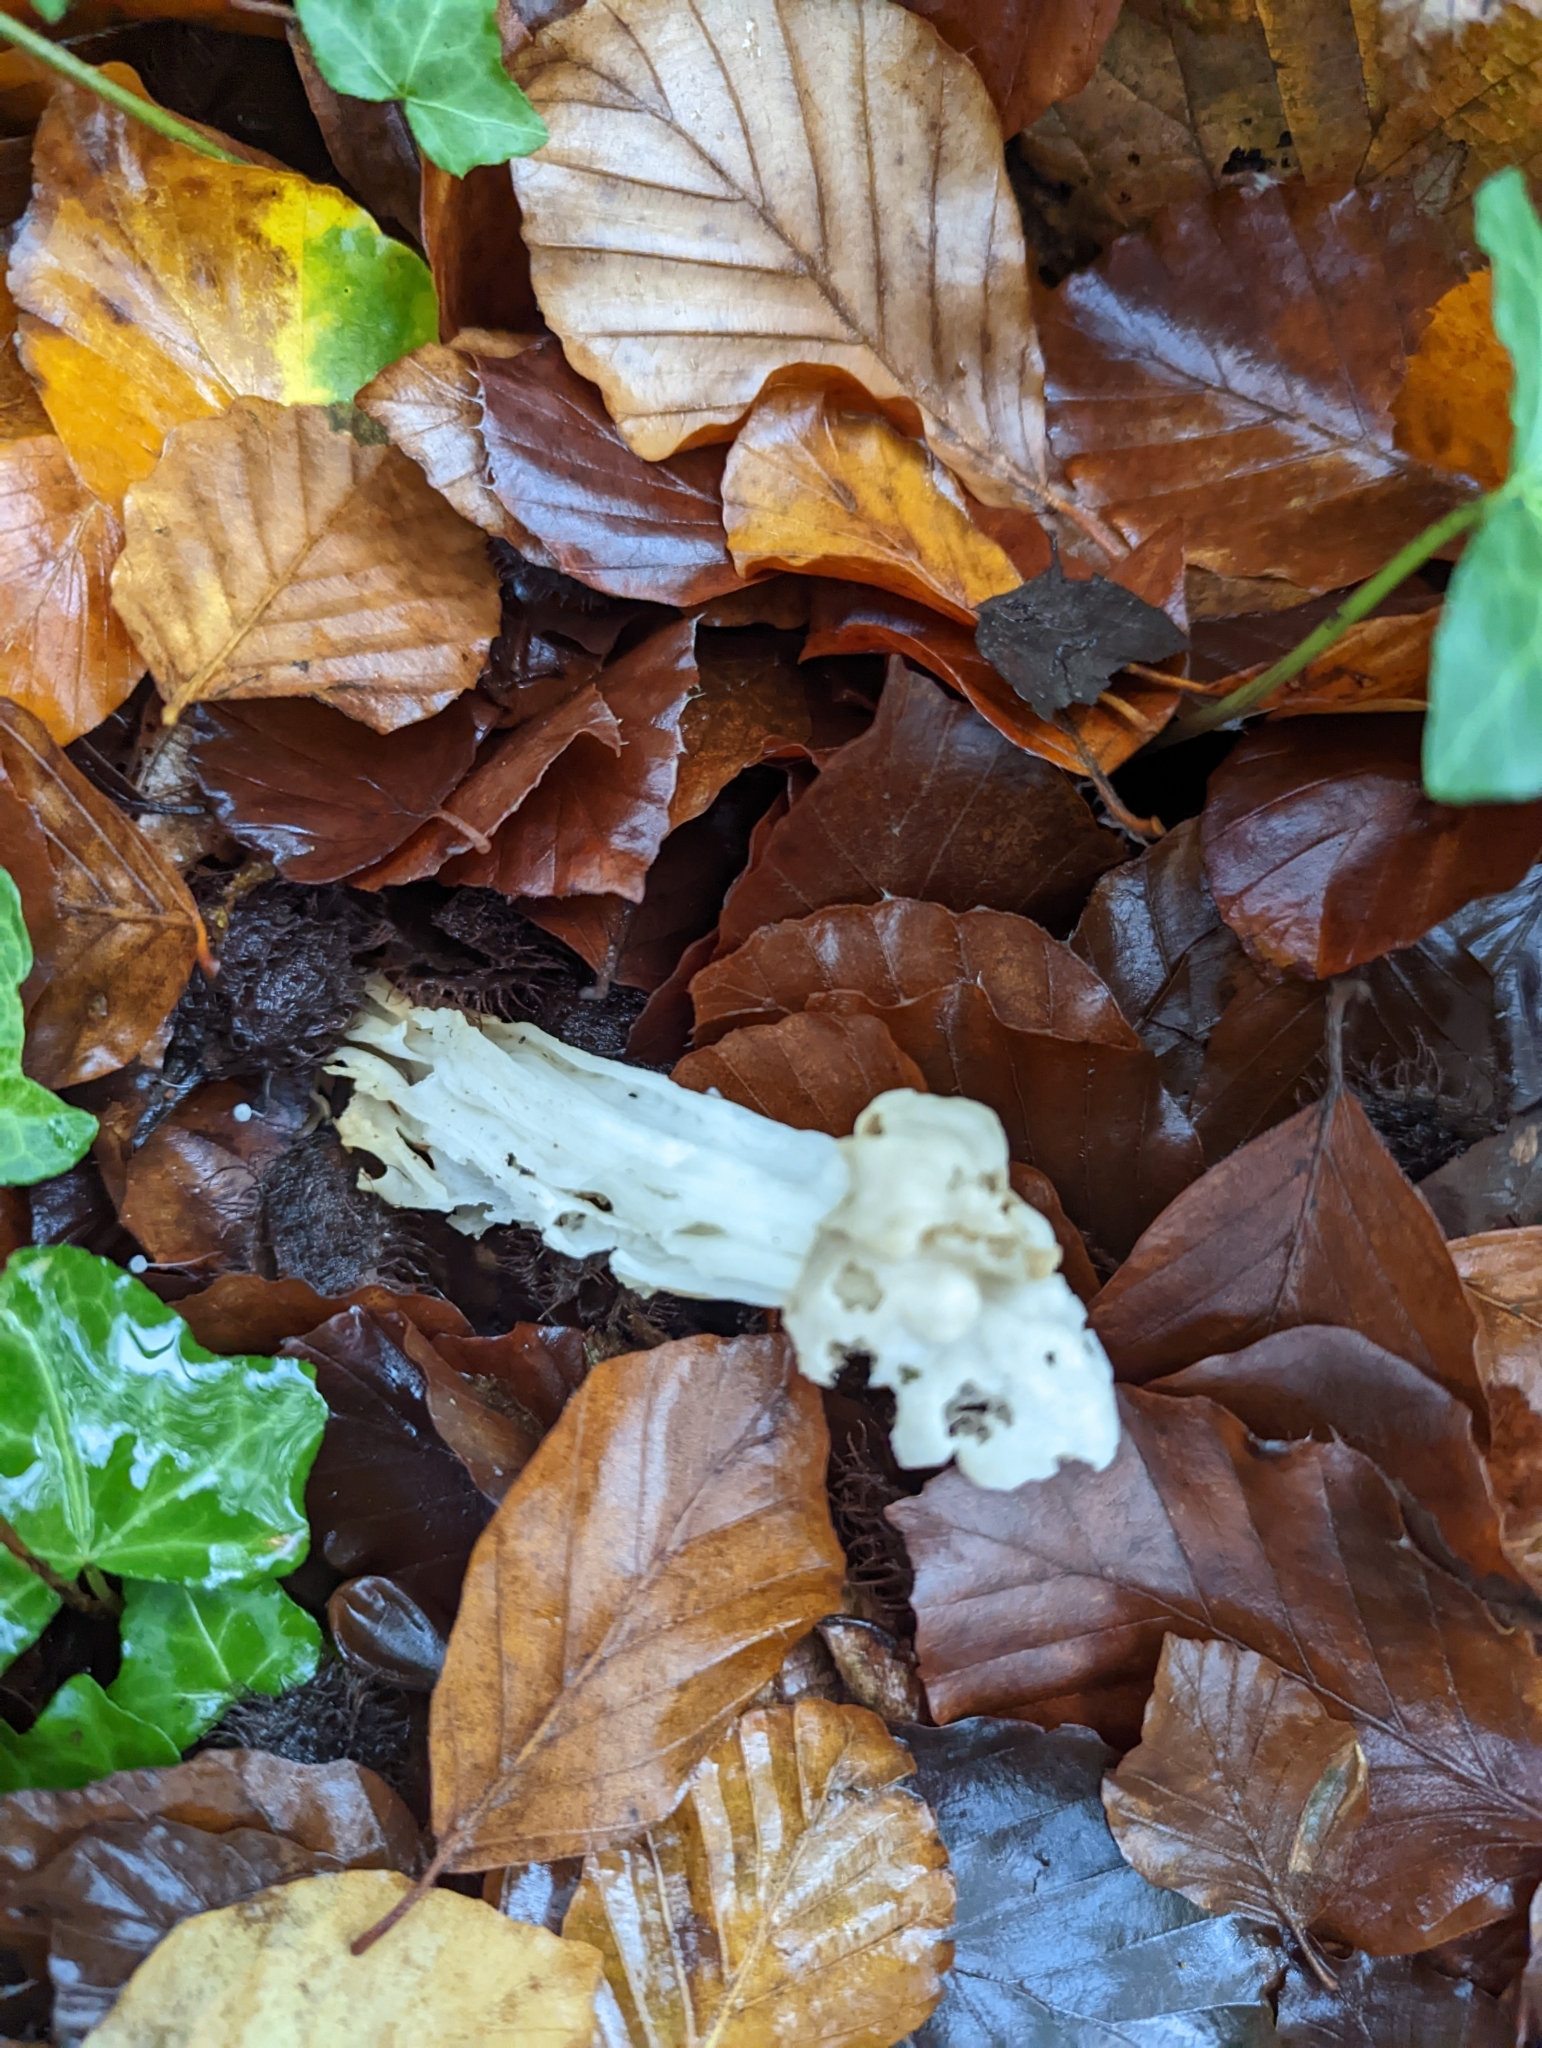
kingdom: Fungi
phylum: Ascomycota
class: Pezizomycetes
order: Pezizales
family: Helvellaceae
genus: Helvella
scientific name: Helvella crispa
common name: White saddle
